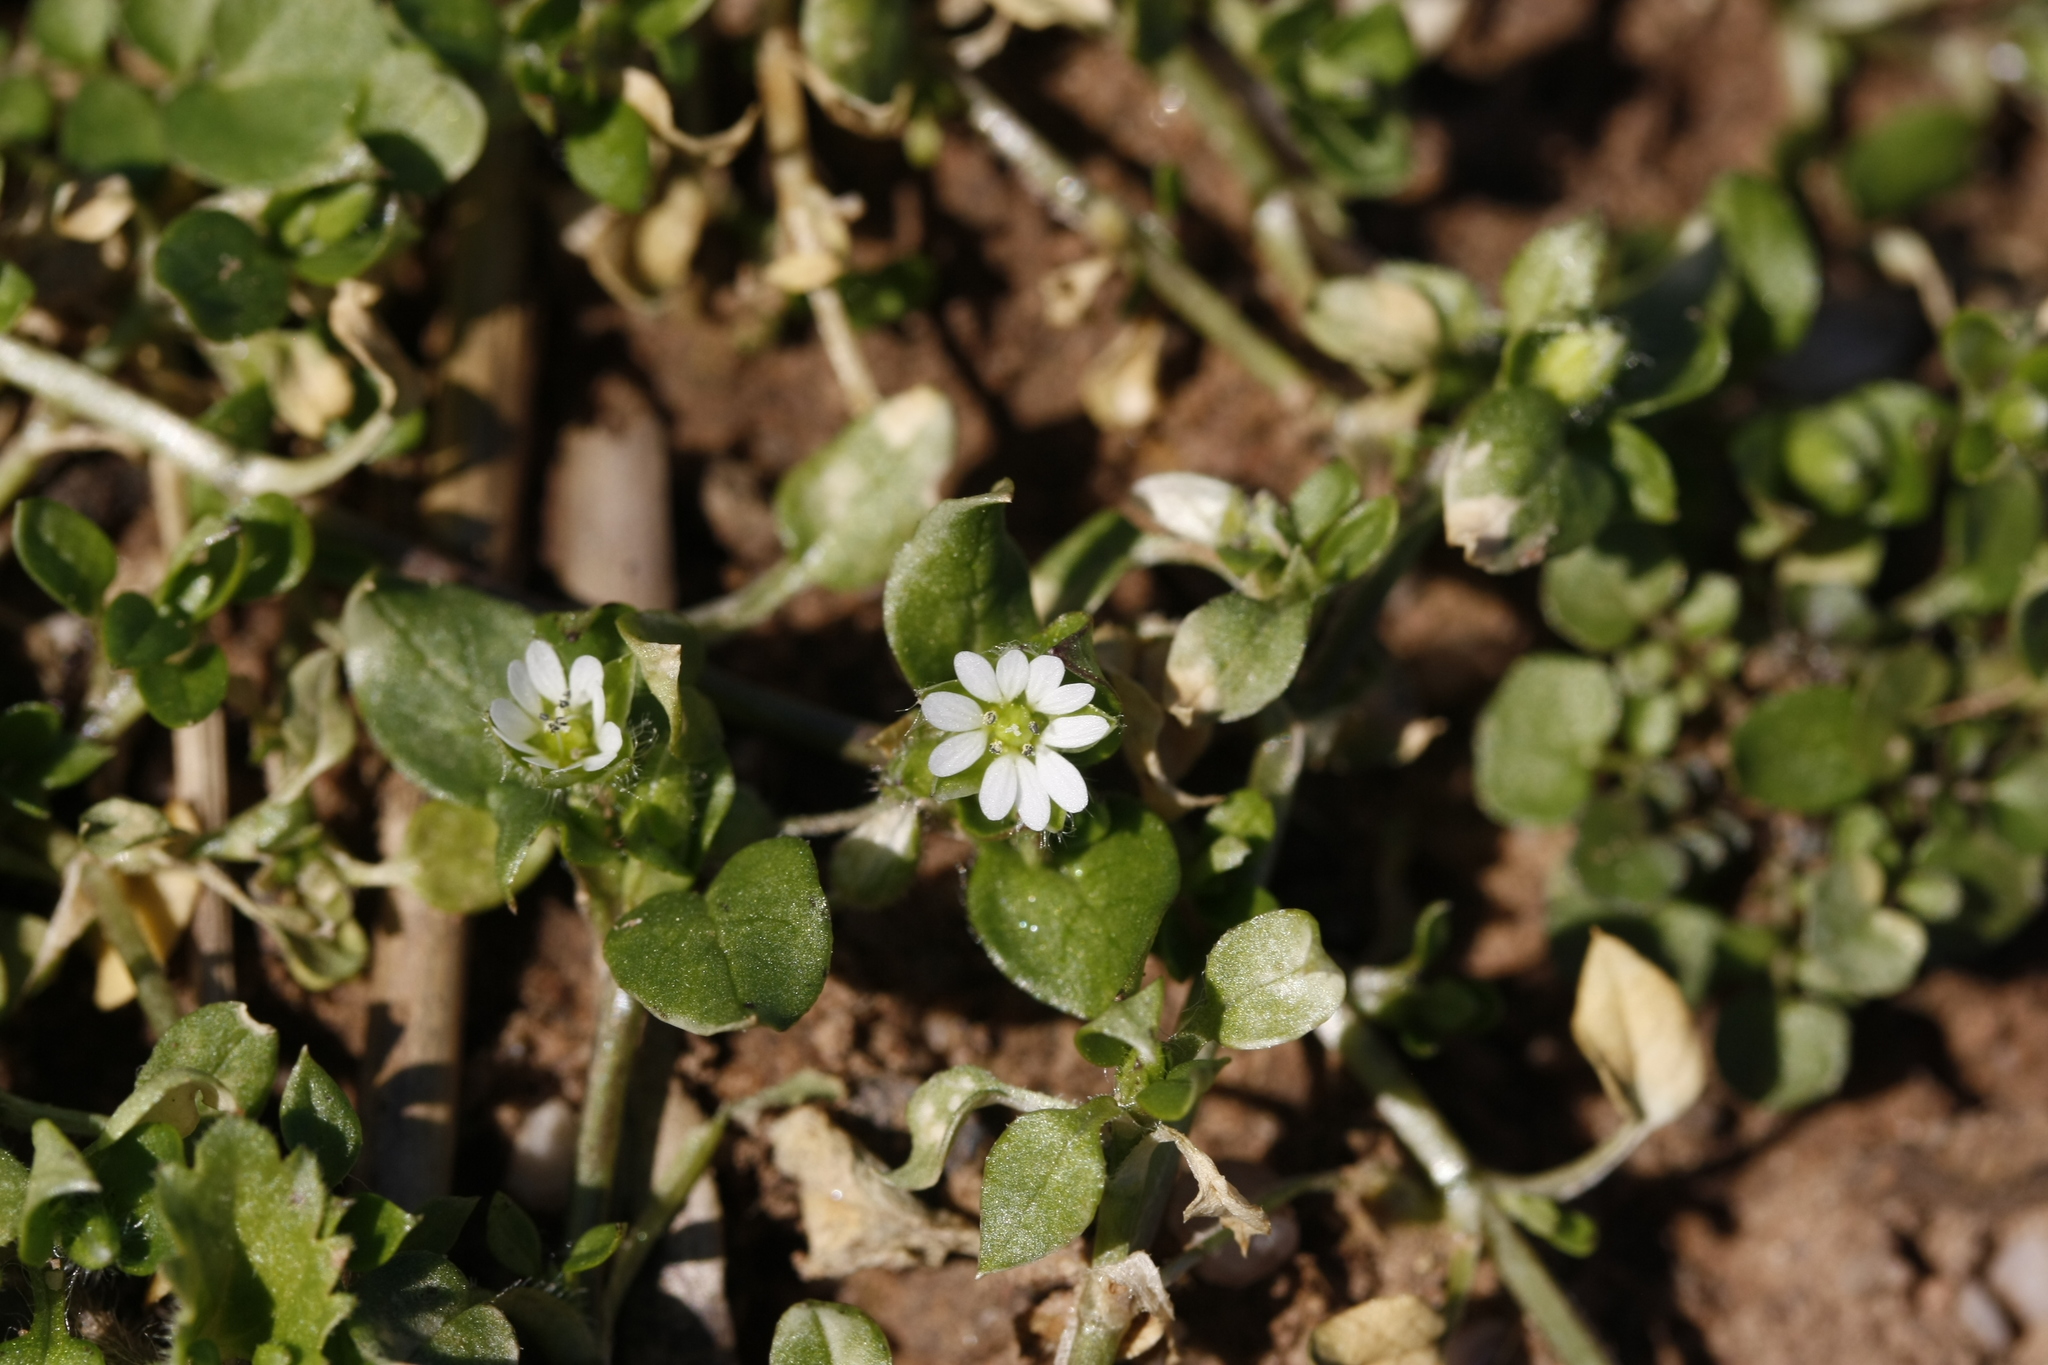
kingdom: Plantae
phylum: Tracheophyta
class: Magnoliopsida
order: Caryophyllales
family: Caryophyllaceae
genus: Stellaria
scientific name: Stellaria media
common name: Common chickweed
